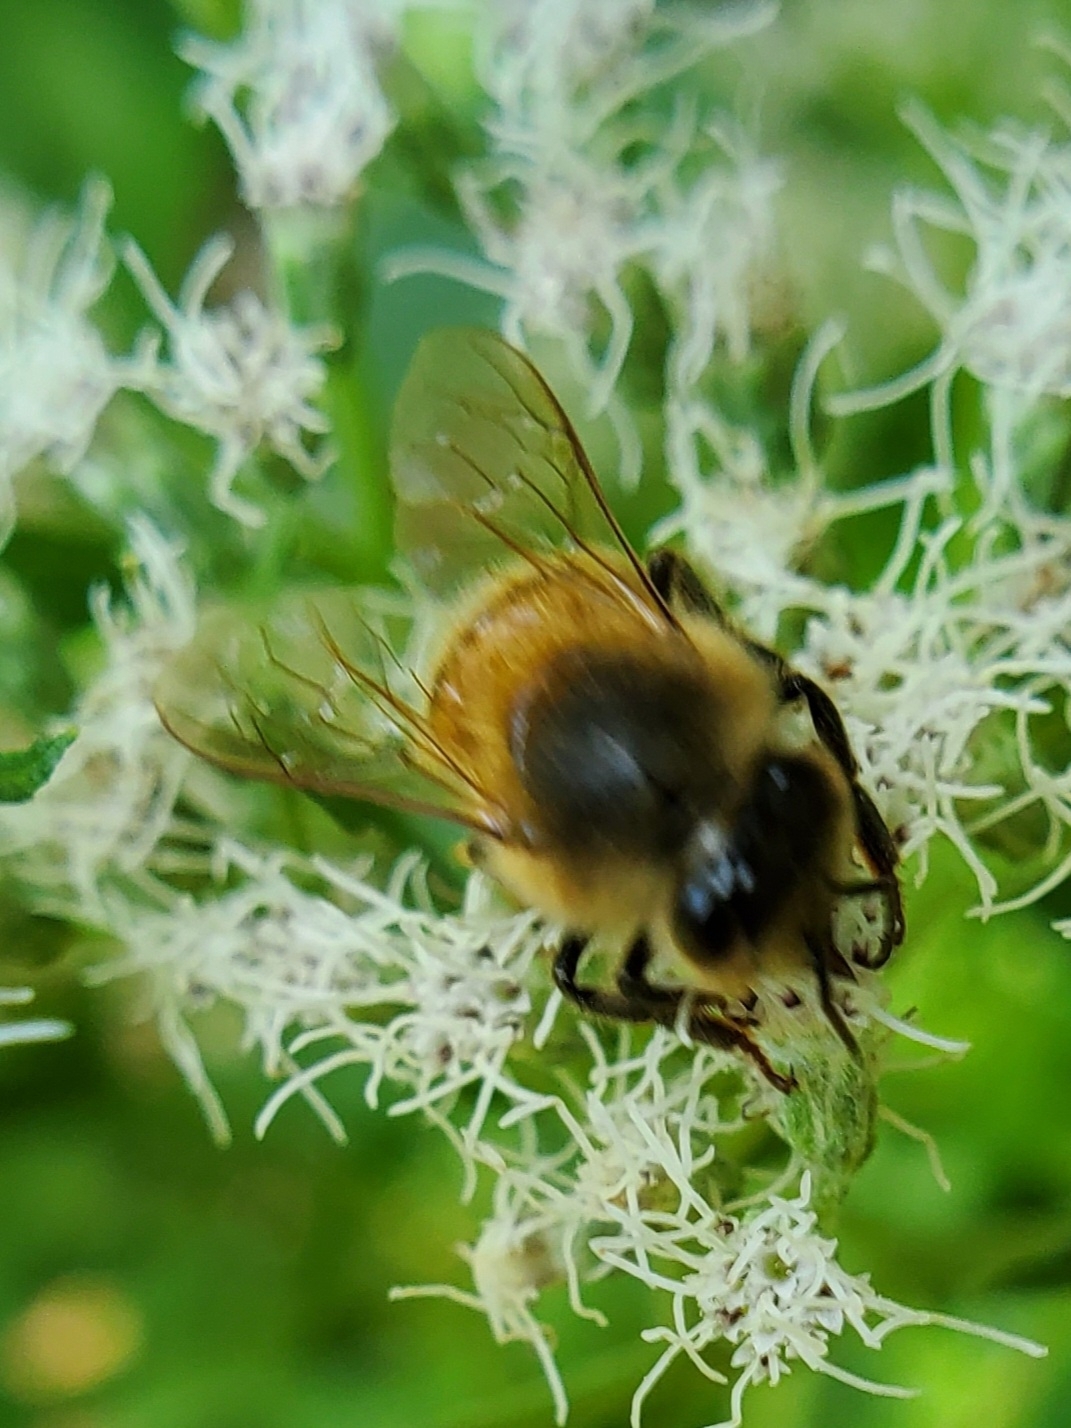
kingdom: Animalia
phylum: Arthropoda
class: Insecta
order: Hymenoptera
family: Apidae
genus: Apis
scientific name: Apis mellifera
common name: Honey bee
